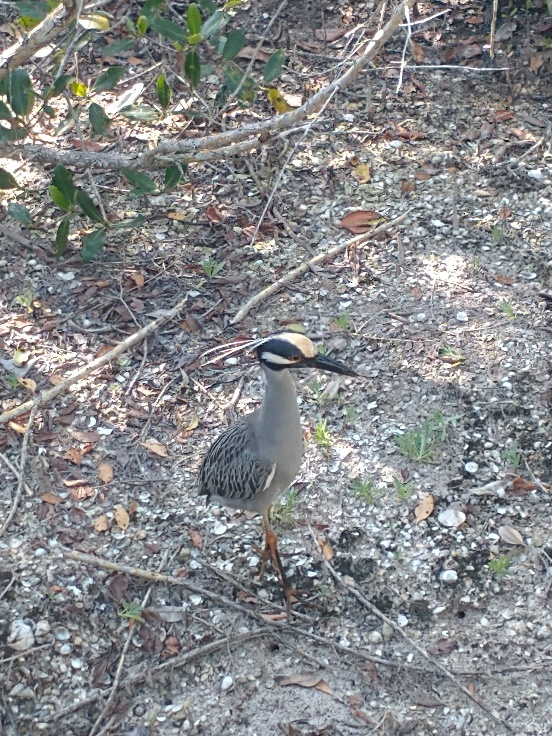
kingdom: Animalia
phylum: Chordata
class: Aves
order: Pelecaniformes
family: Ardeidae
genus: Nyctanassa
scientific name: Nyctanassa violacea
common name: Yellow-crowned night heron
